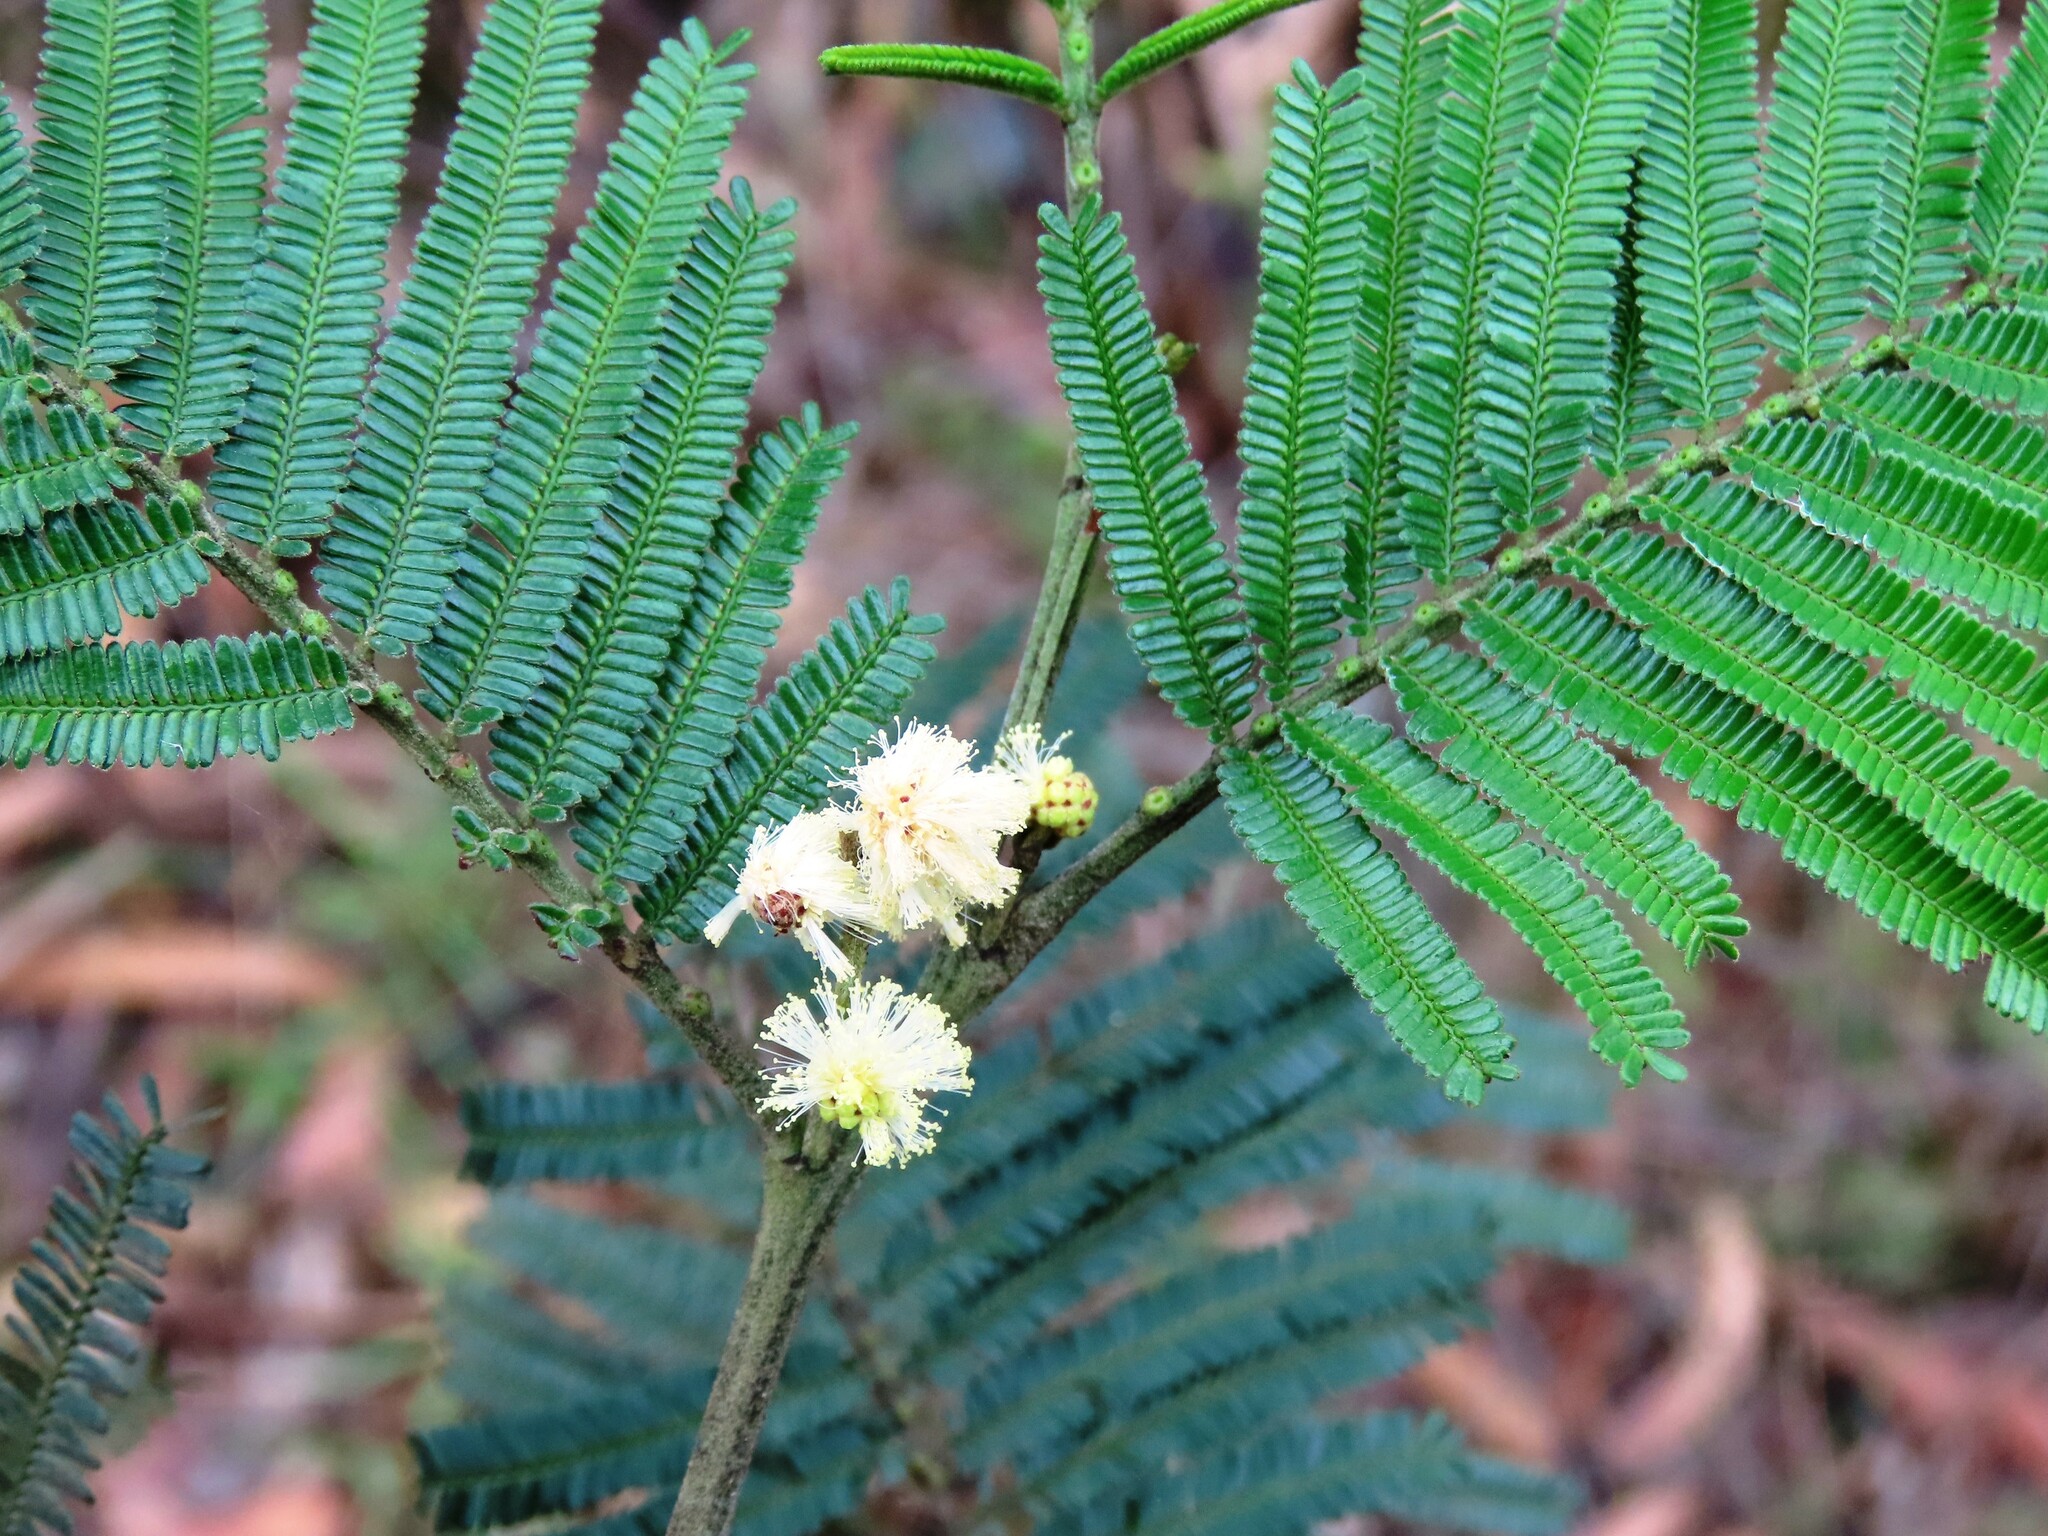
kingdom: Plantae
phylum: Tracheophyta
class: Magnoliopsida
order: Fabales
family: Fabaceae
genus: Acacia
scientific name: Acacia mearnsii
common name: Black wattle
